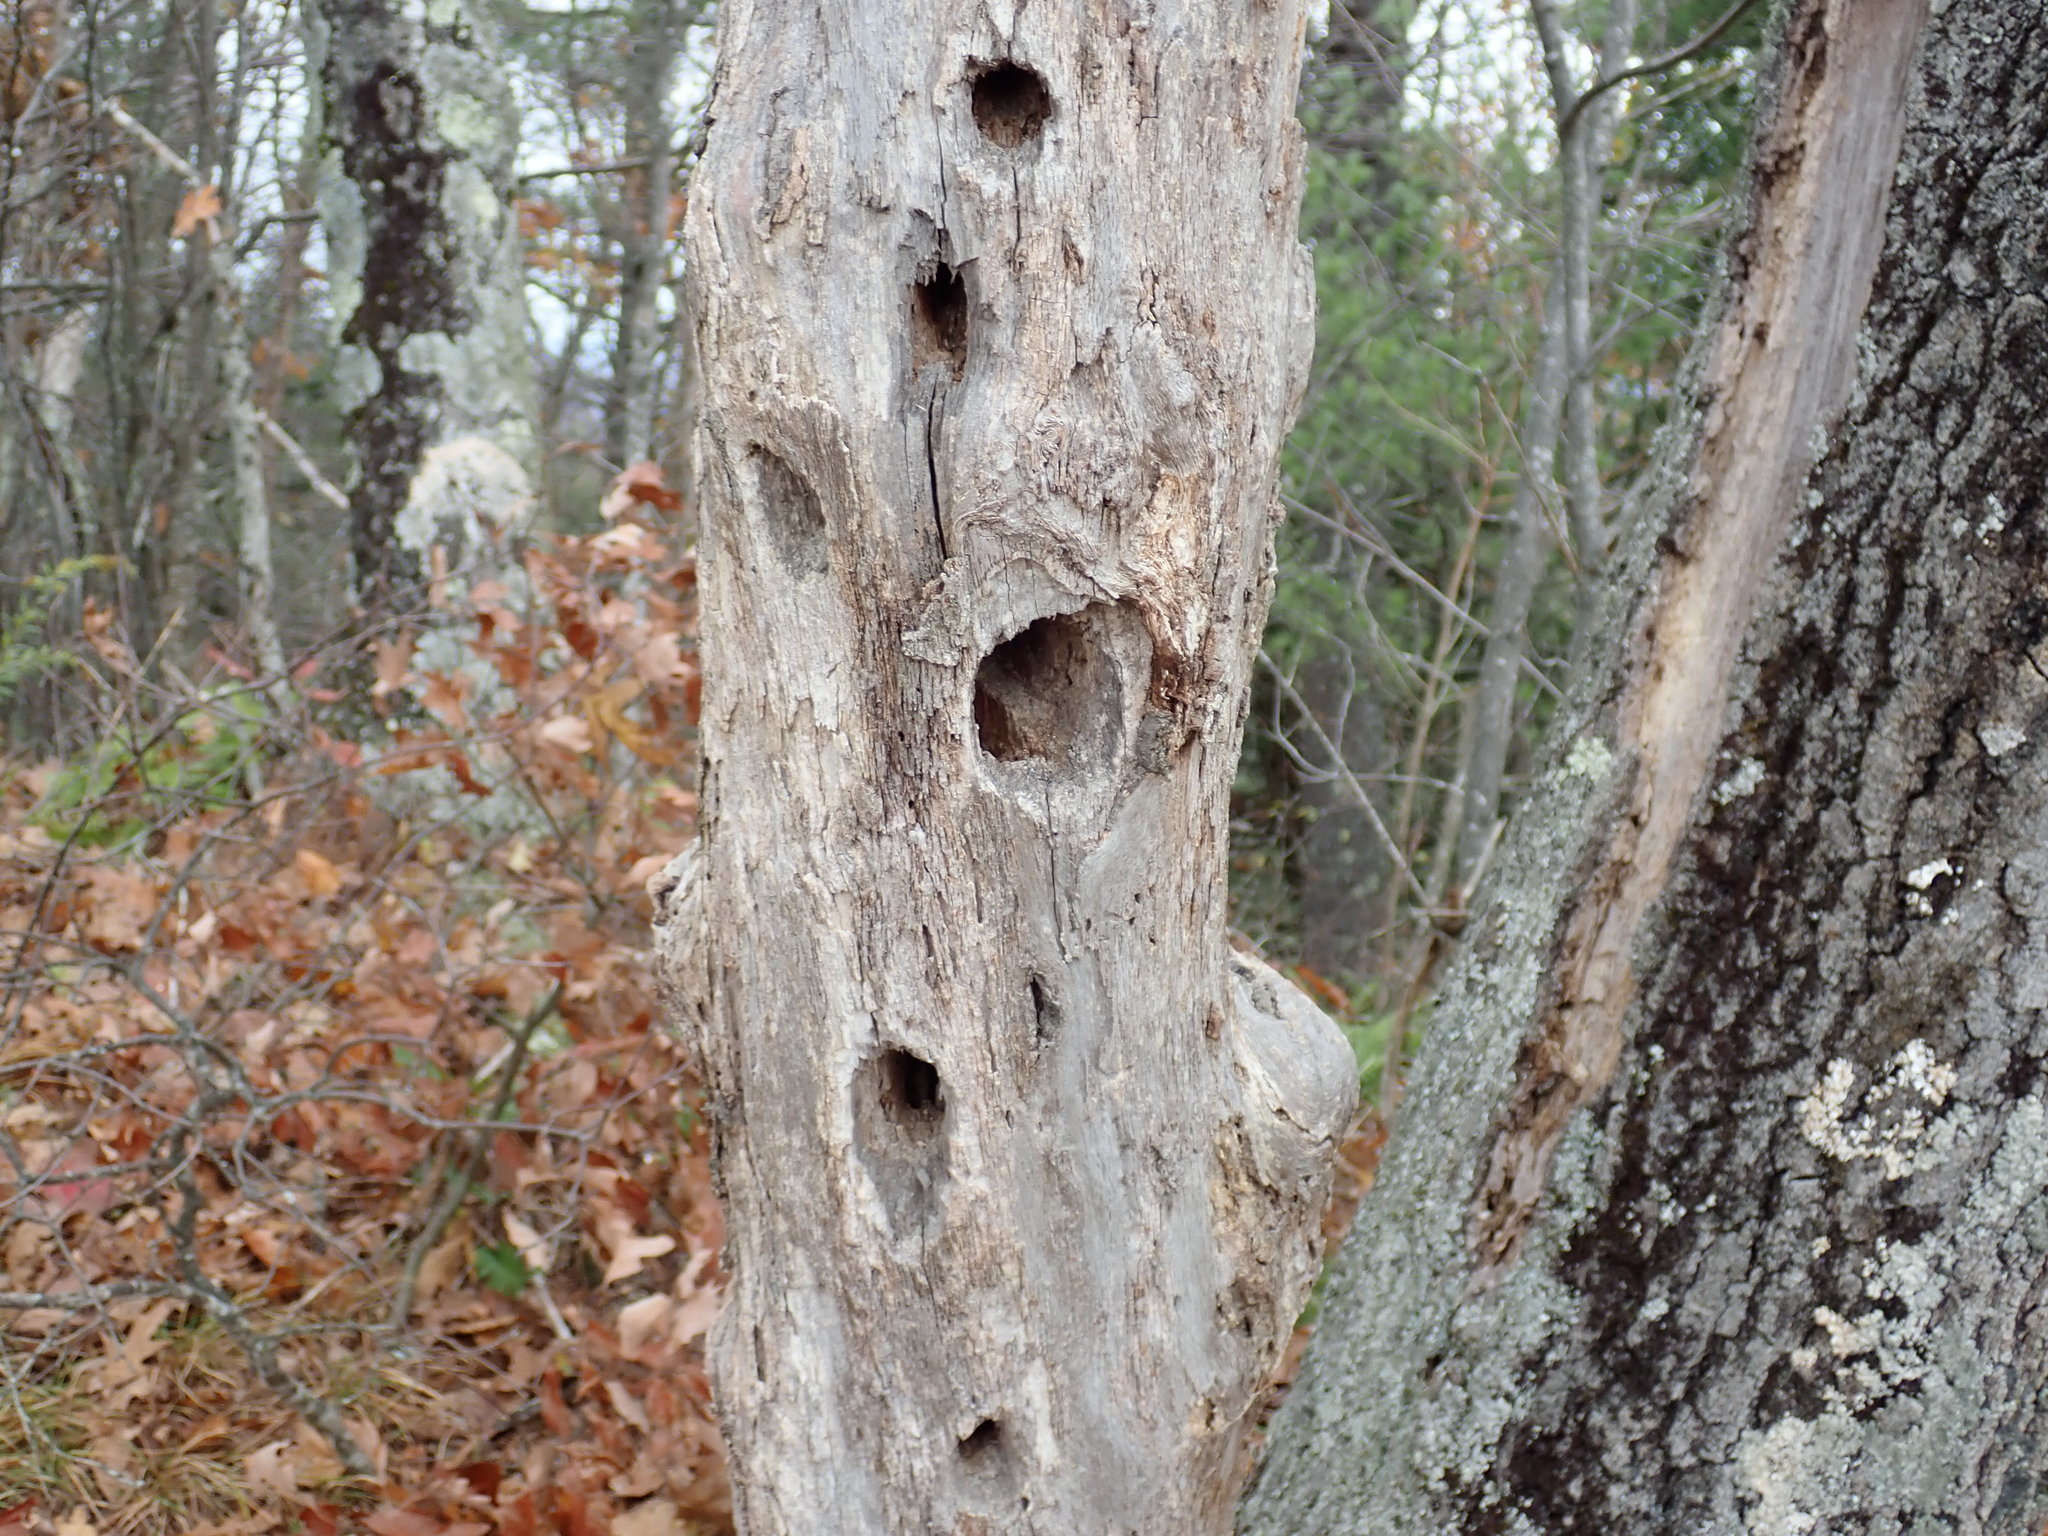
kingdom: Animalia
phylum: Chordata
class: Aves
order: Piciformes
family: Picidae
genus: Dryocopus
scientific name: Dryocopus pileatus
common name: Pileated woodpecker
